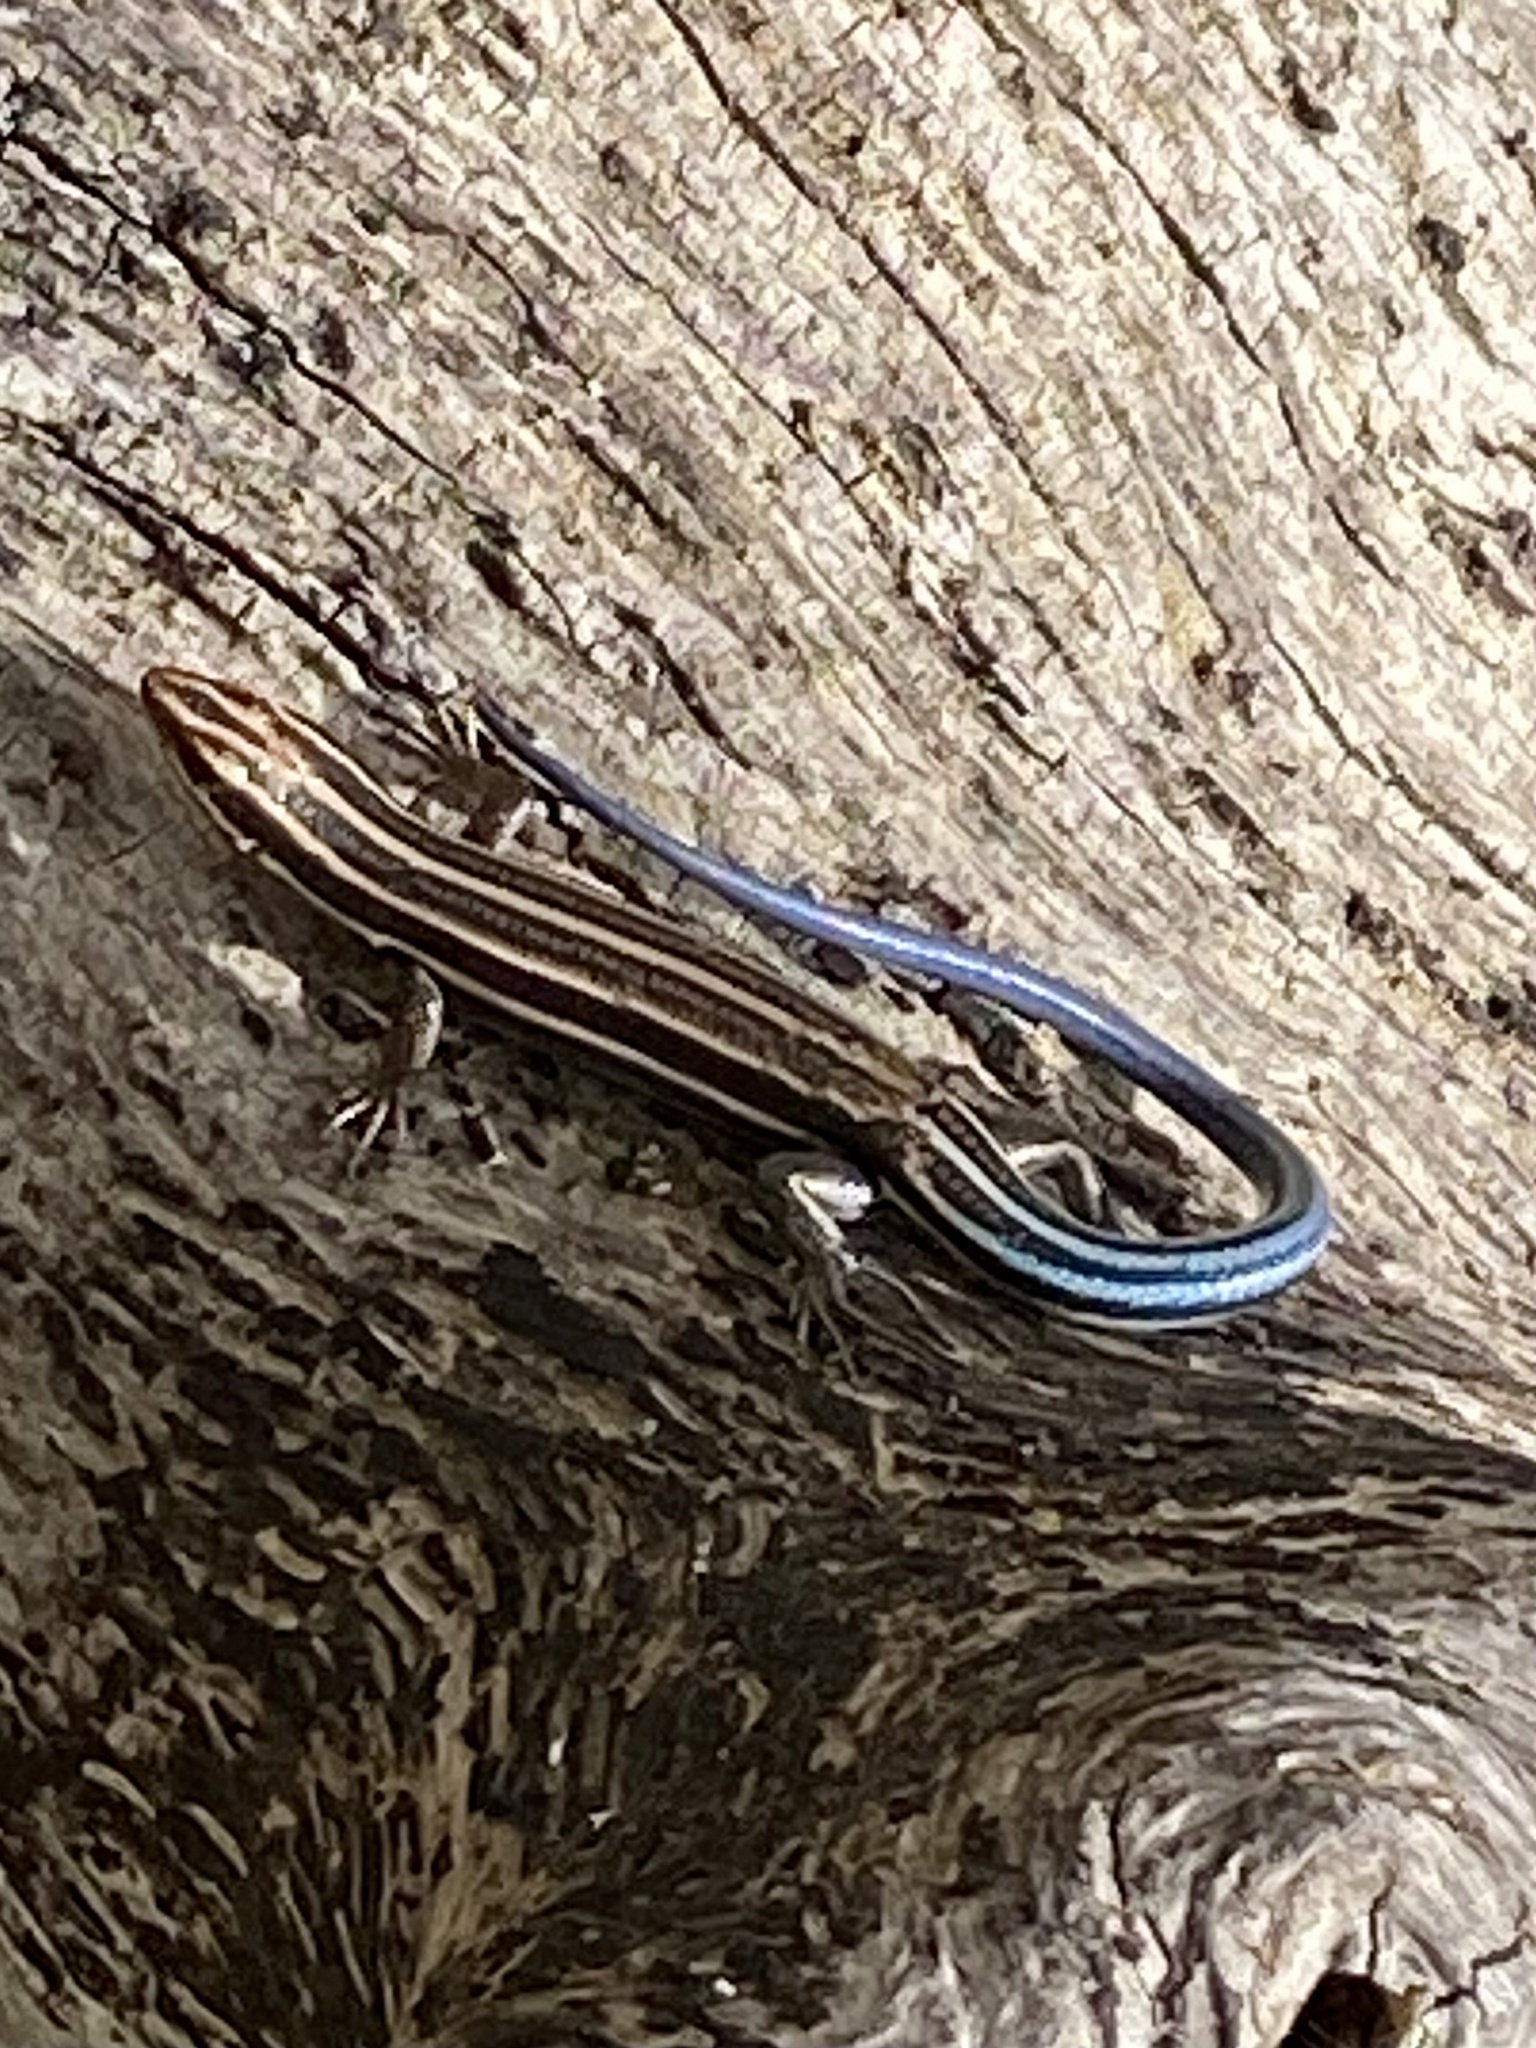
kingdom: Animalia
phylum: Chordata
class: Squamata
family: Scincidae
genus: Plestiodon
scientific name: Plestiodon fasciatus
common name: Five-lined skink
